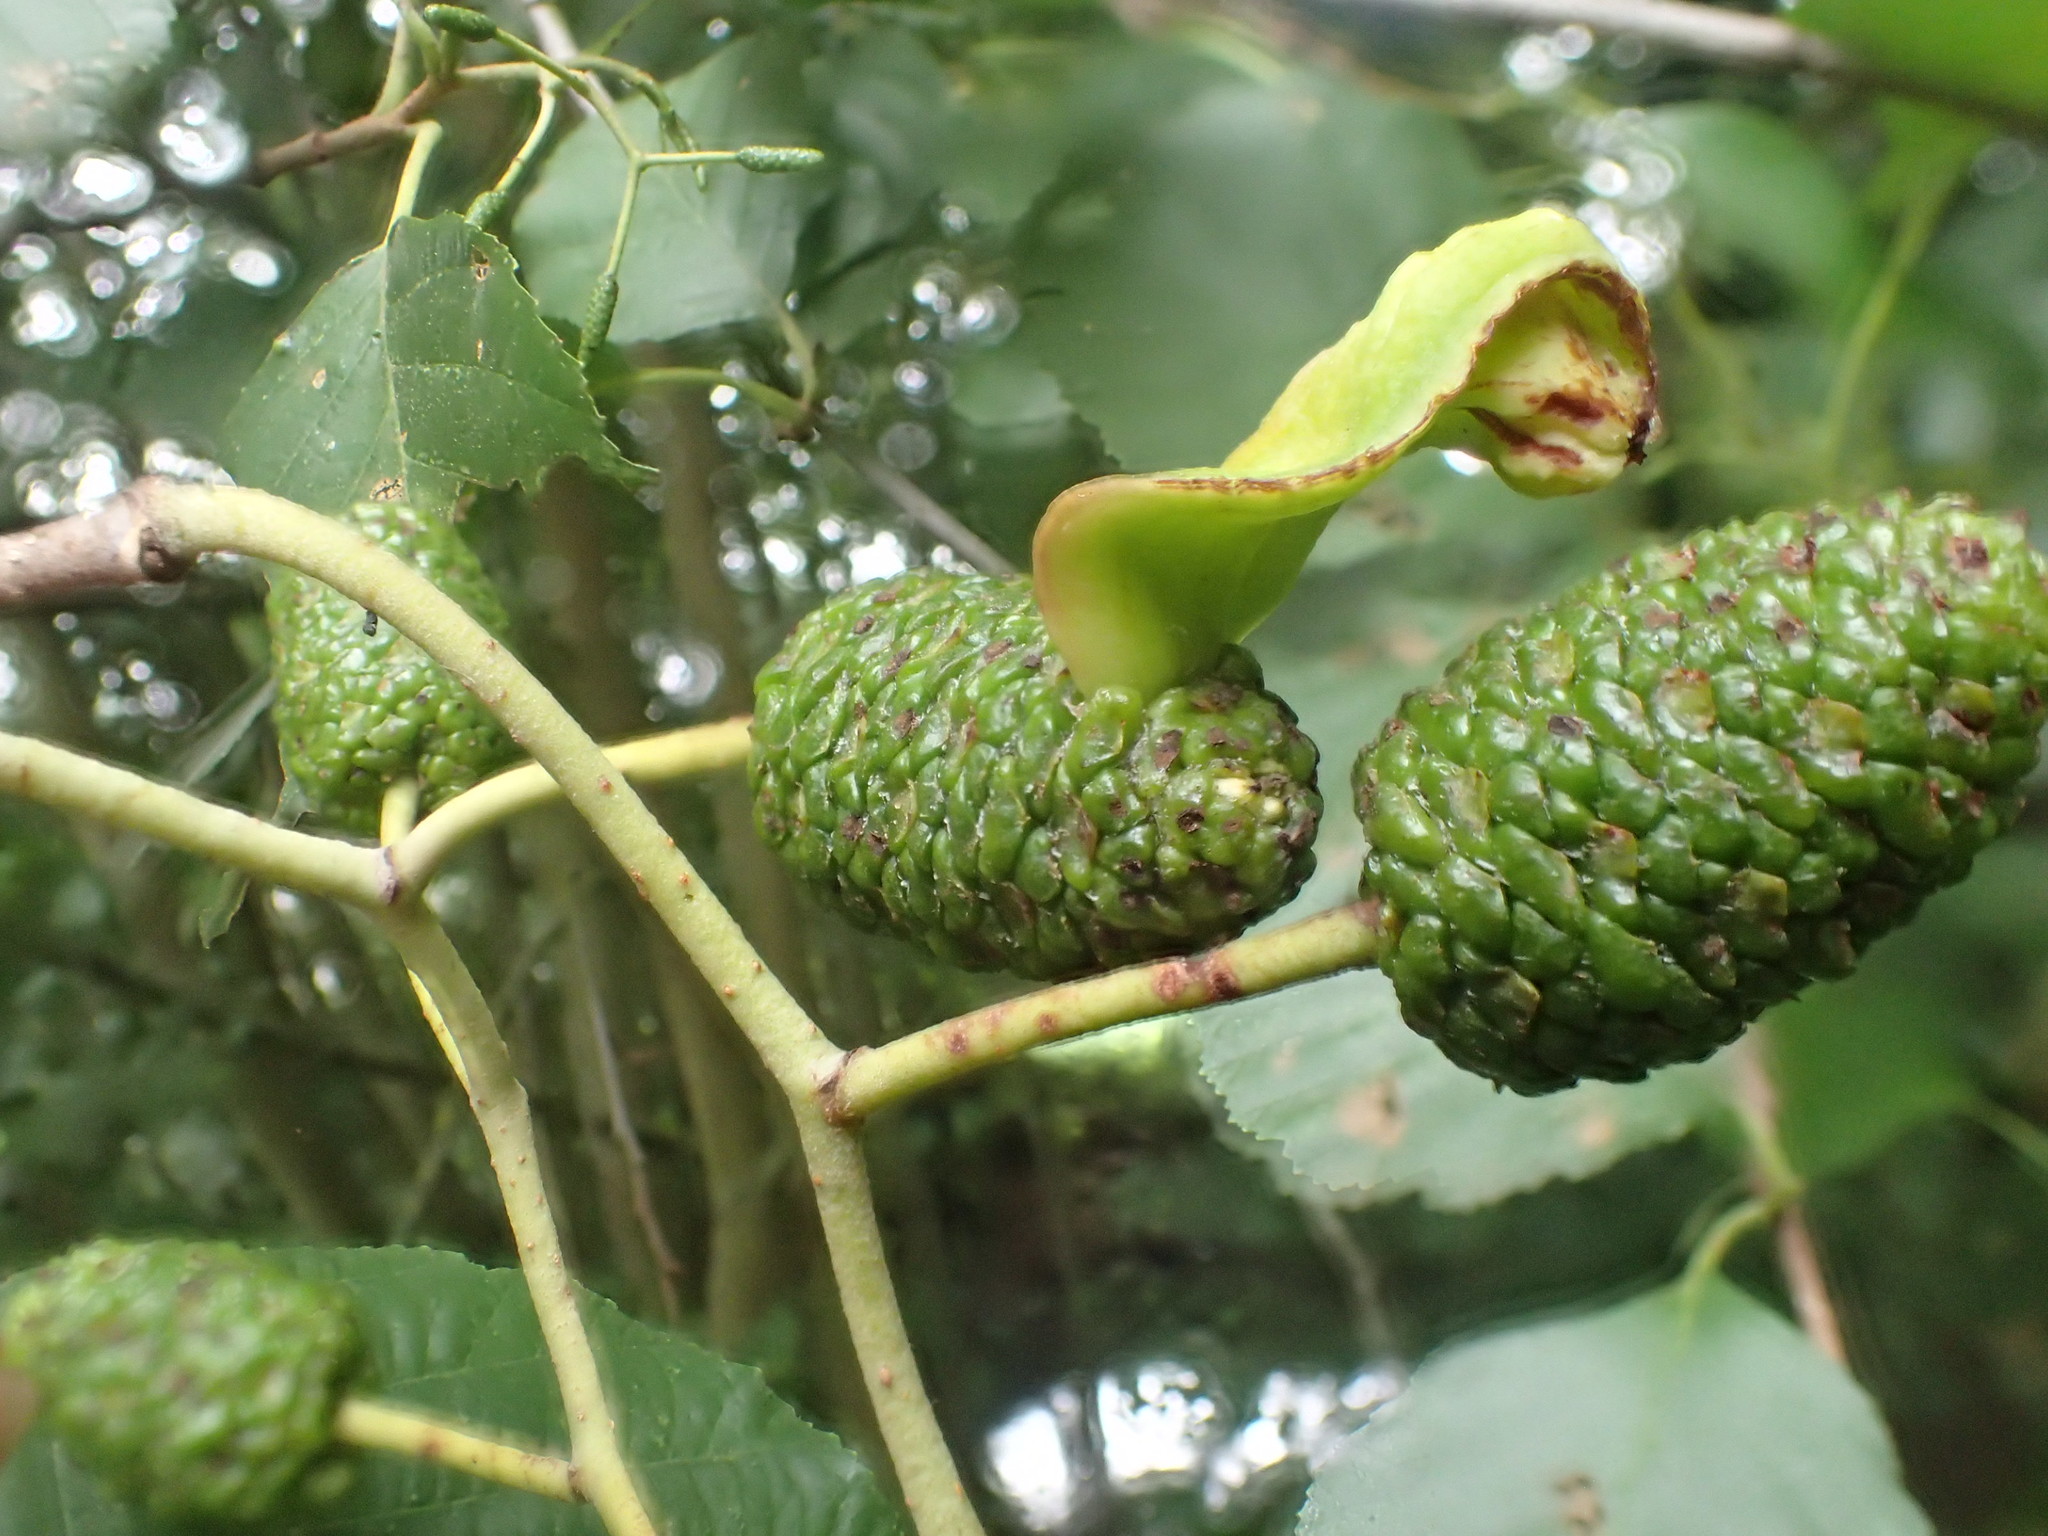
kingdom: Fungi
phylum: Ascomycota
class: Taphrinomycetes
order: Taphrinales
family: Taphrinaceae
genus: Taphrina
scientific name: Taphrina alni
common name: Alder tongue
